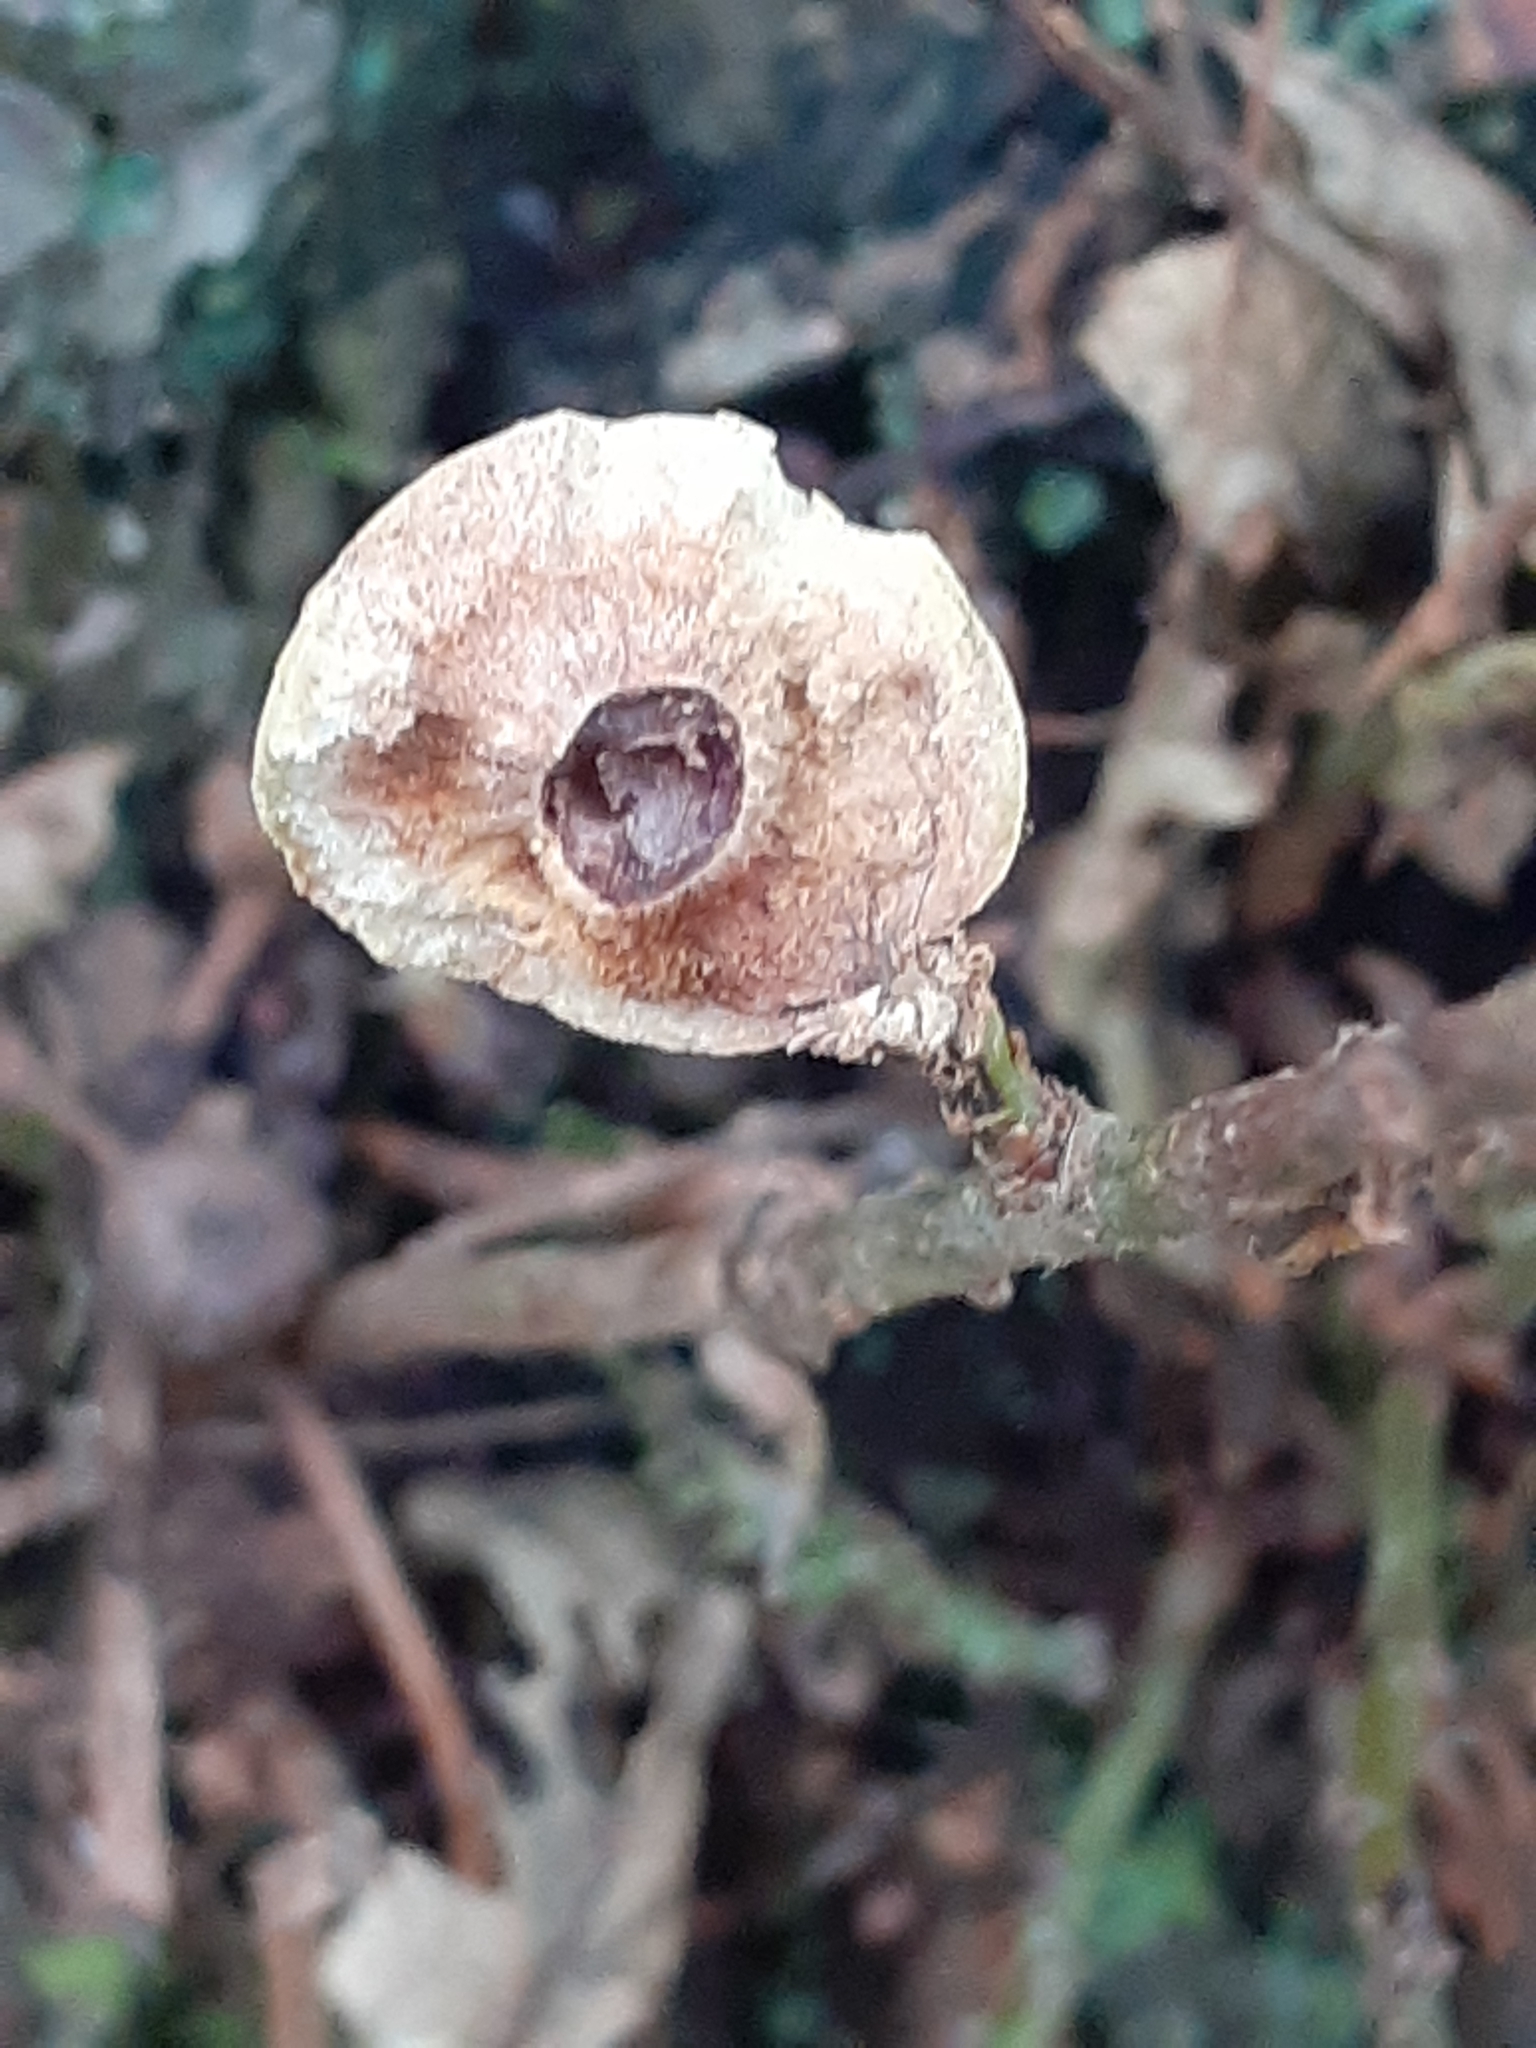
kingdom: Animalia
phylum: Arthropoda
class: Insecta
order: Hymenoptera
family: Cynipidae
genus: Andricus
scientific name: Andricus kollari
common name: Marble gall
